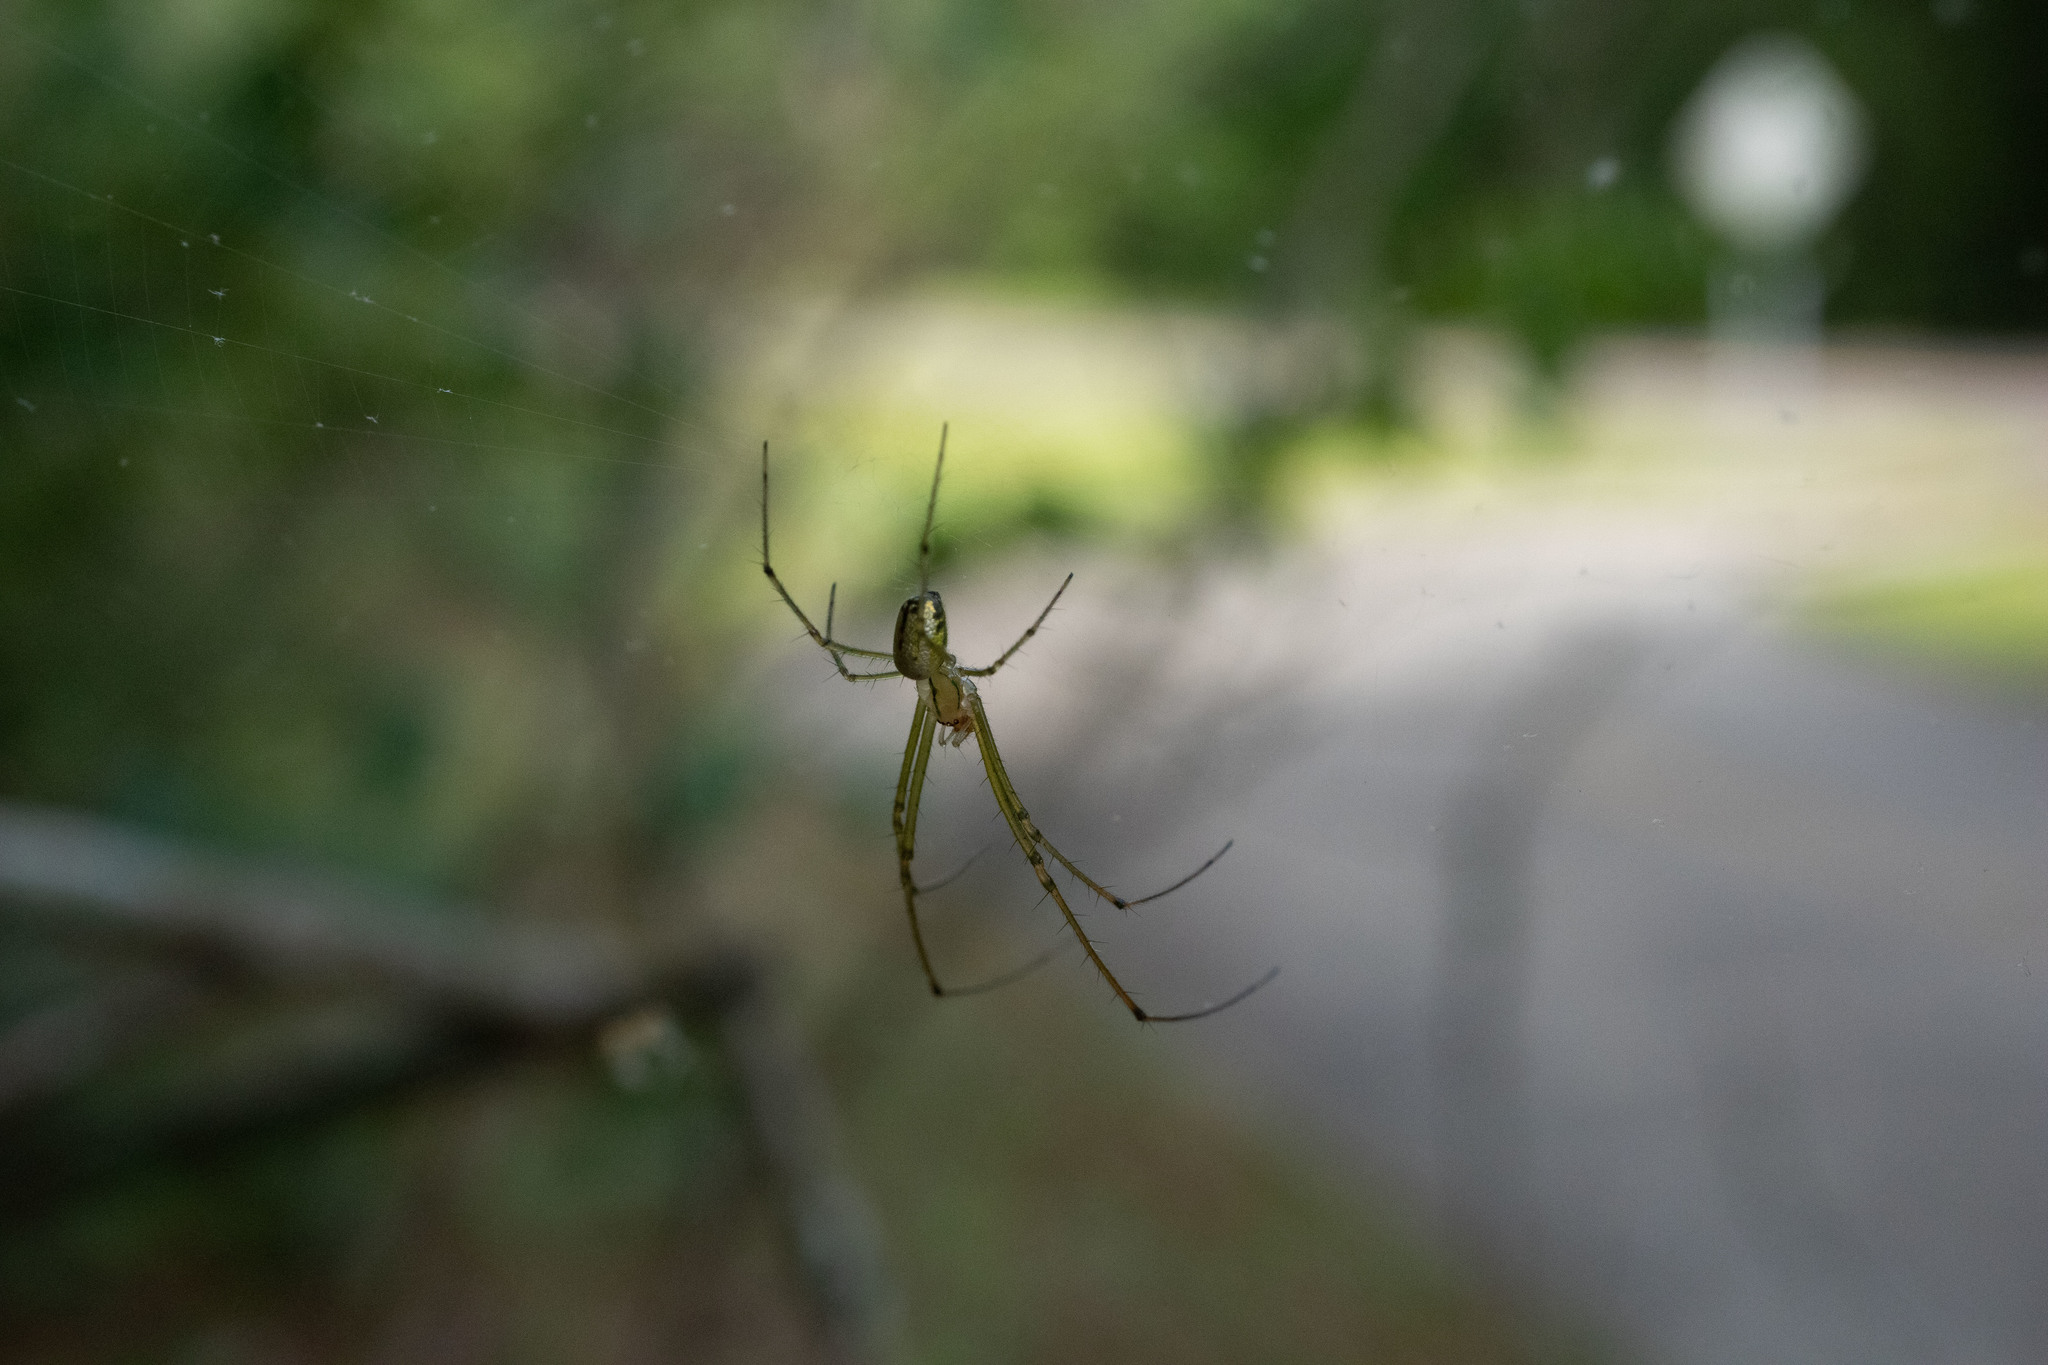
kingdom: Animalia
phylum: Arthropoda
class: Arachnida
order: Araneae
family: Tetragnathidae
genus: Leucauge
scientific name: Leucauge venusta
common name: Longjawed orb weavers
